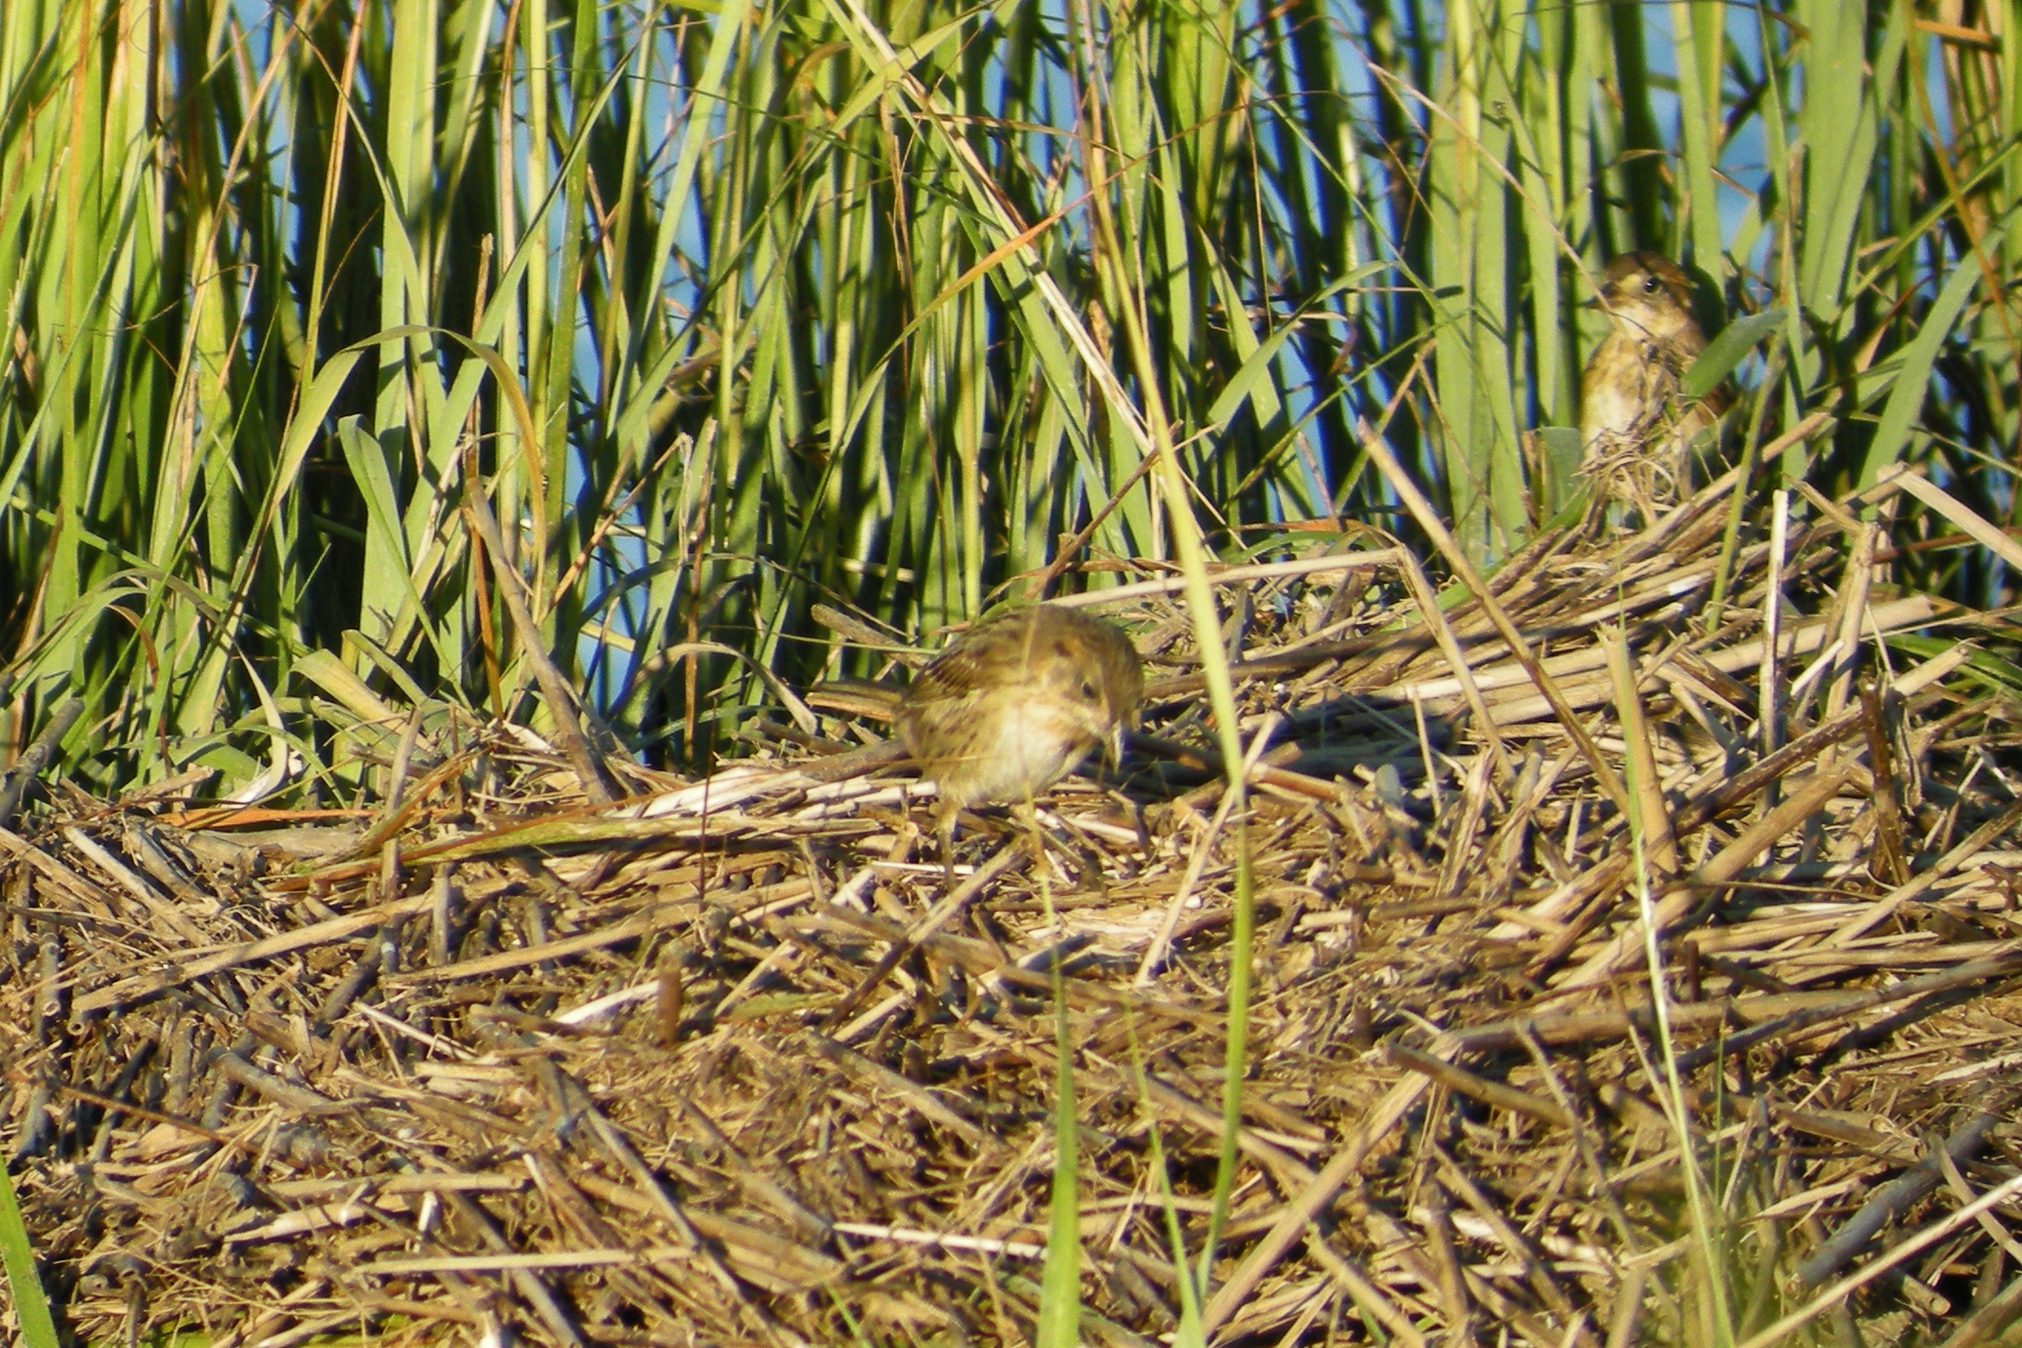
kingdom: Animalia
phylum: Chordata
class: Aves
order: Passeriformes
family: Passerellidae
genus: Ammospiza
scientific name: Ammospiza maritima
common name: Seaside sparrow
